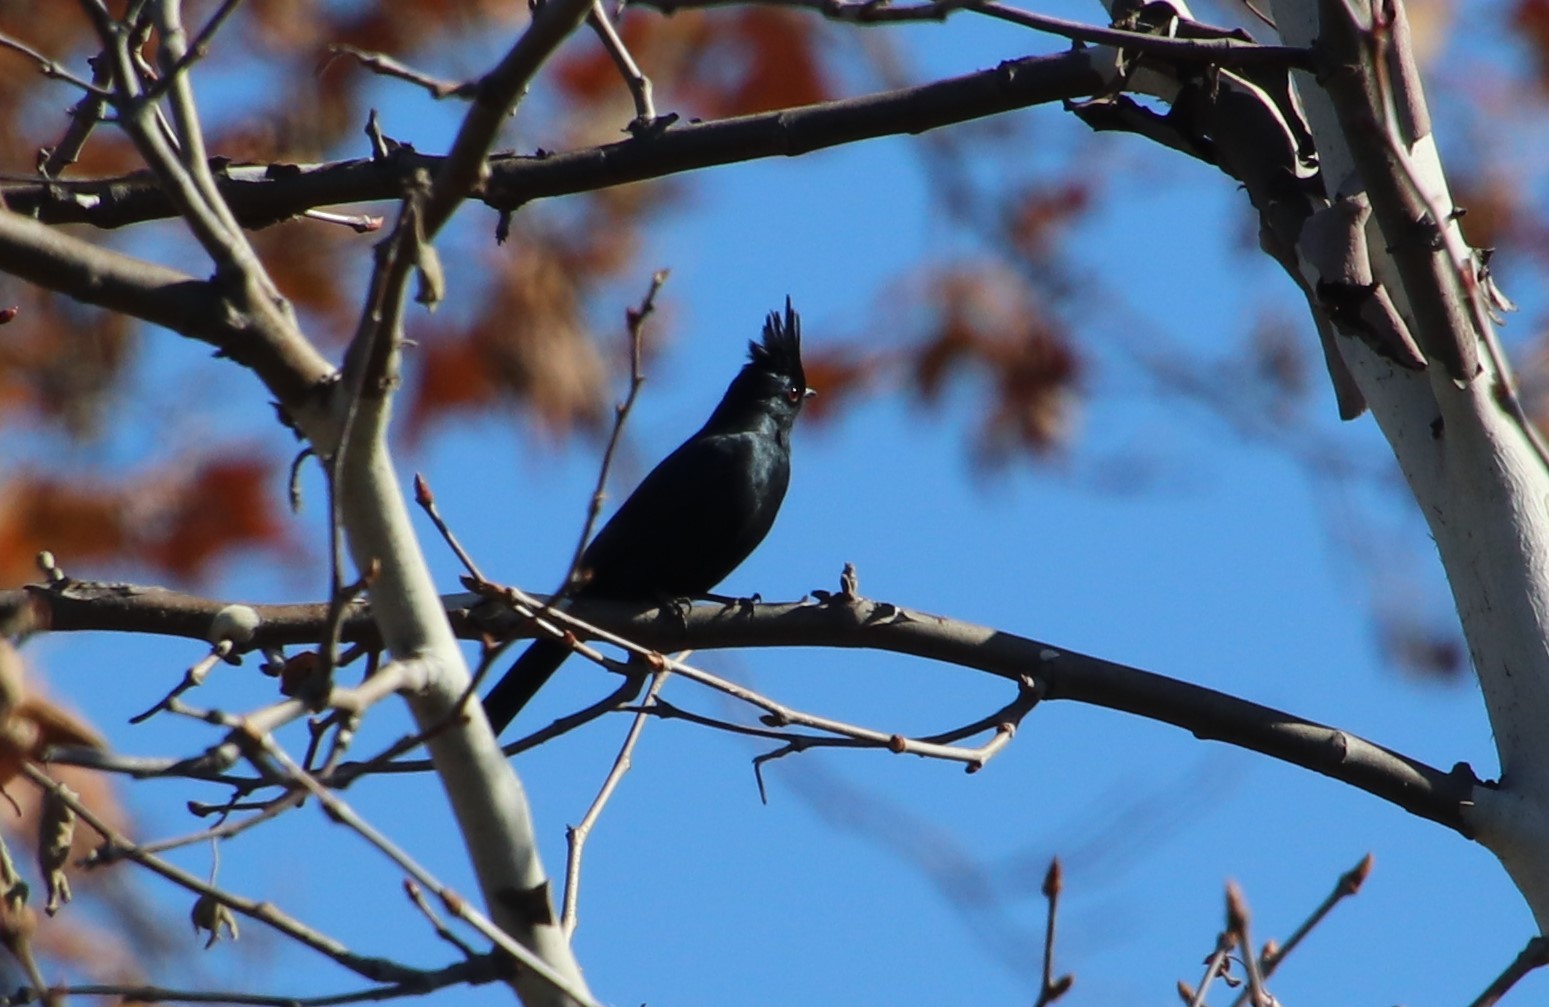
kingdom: Animalia
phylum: Chordata
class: Aves
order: Passeriformes
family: Ptilogonatidae
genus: Phainopepla
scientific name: Phainopepla nitens
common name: Phainopepla
